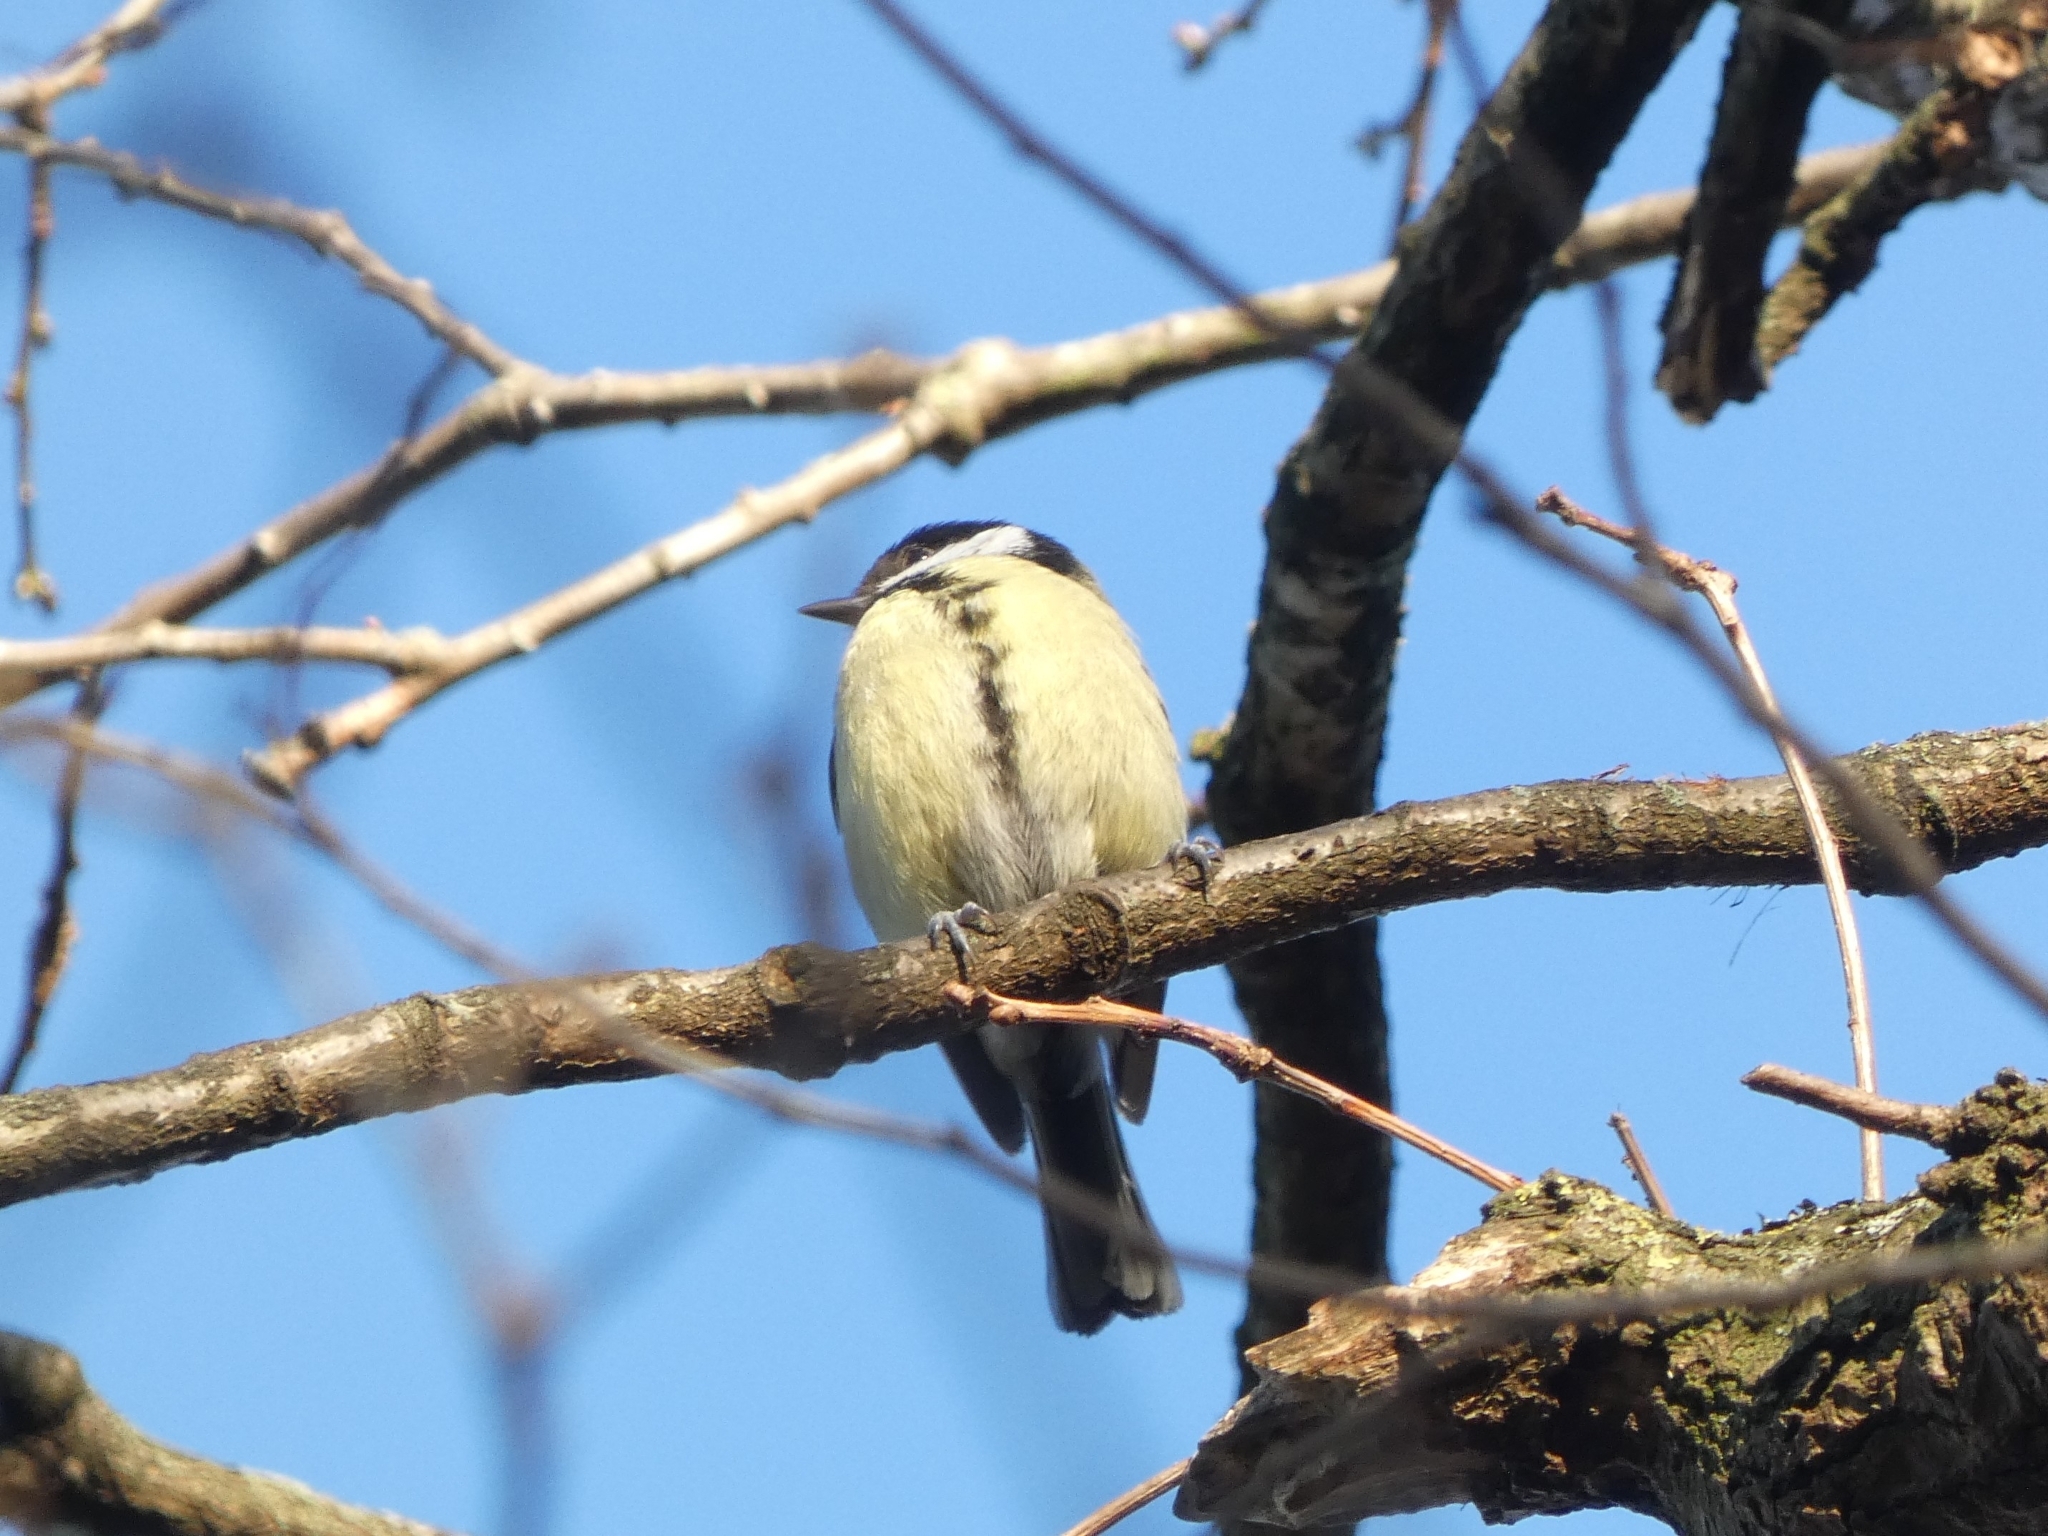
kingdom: Animalia
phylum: Chordata
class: Aves
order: Passeriformes
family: Paridae
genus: Parus
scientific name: Parus major
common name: Great tit
